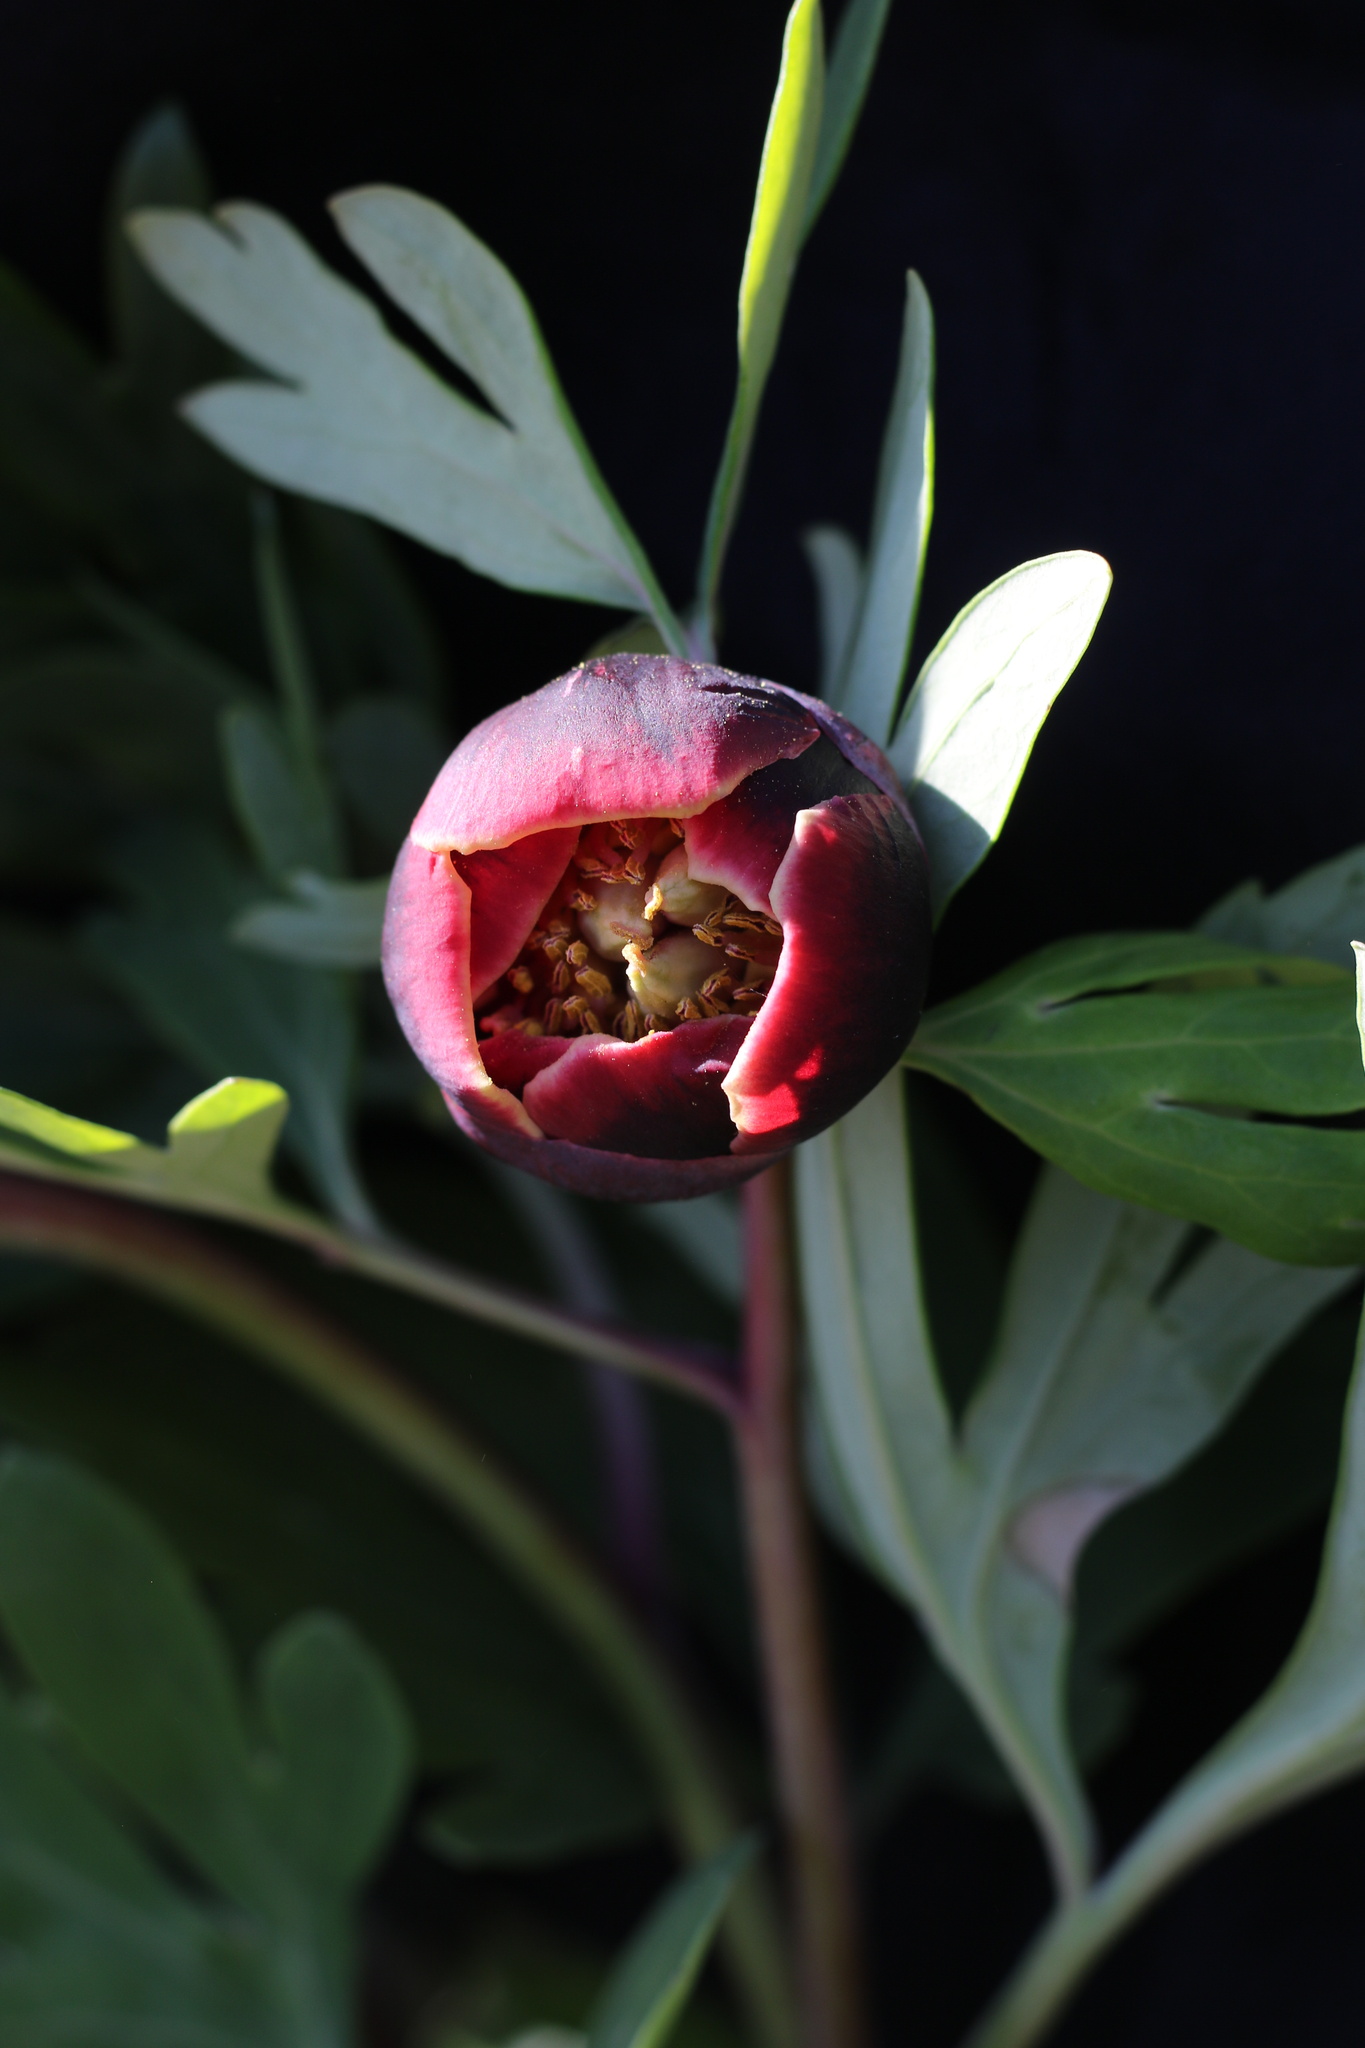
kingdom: Plantae
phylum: Tracheophyta
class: Magnoliopsida
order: Saxifragales
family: Paeoniaceae
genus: Paeonia
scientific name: Paeonia californica
